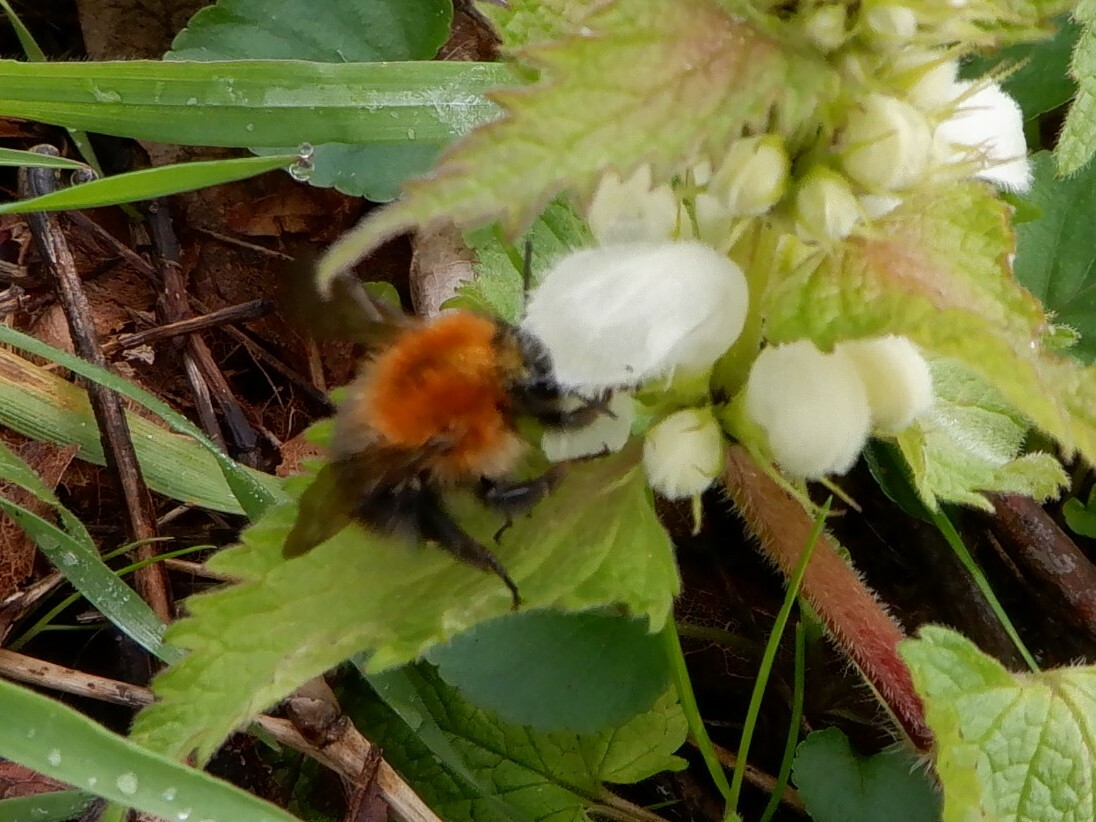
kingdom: Animalia
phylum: Arthropoda
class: Insecta
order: Hymenoptera
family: Apidae
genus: Bombus
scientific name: Bombus pascuorum
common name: Common carder bee
